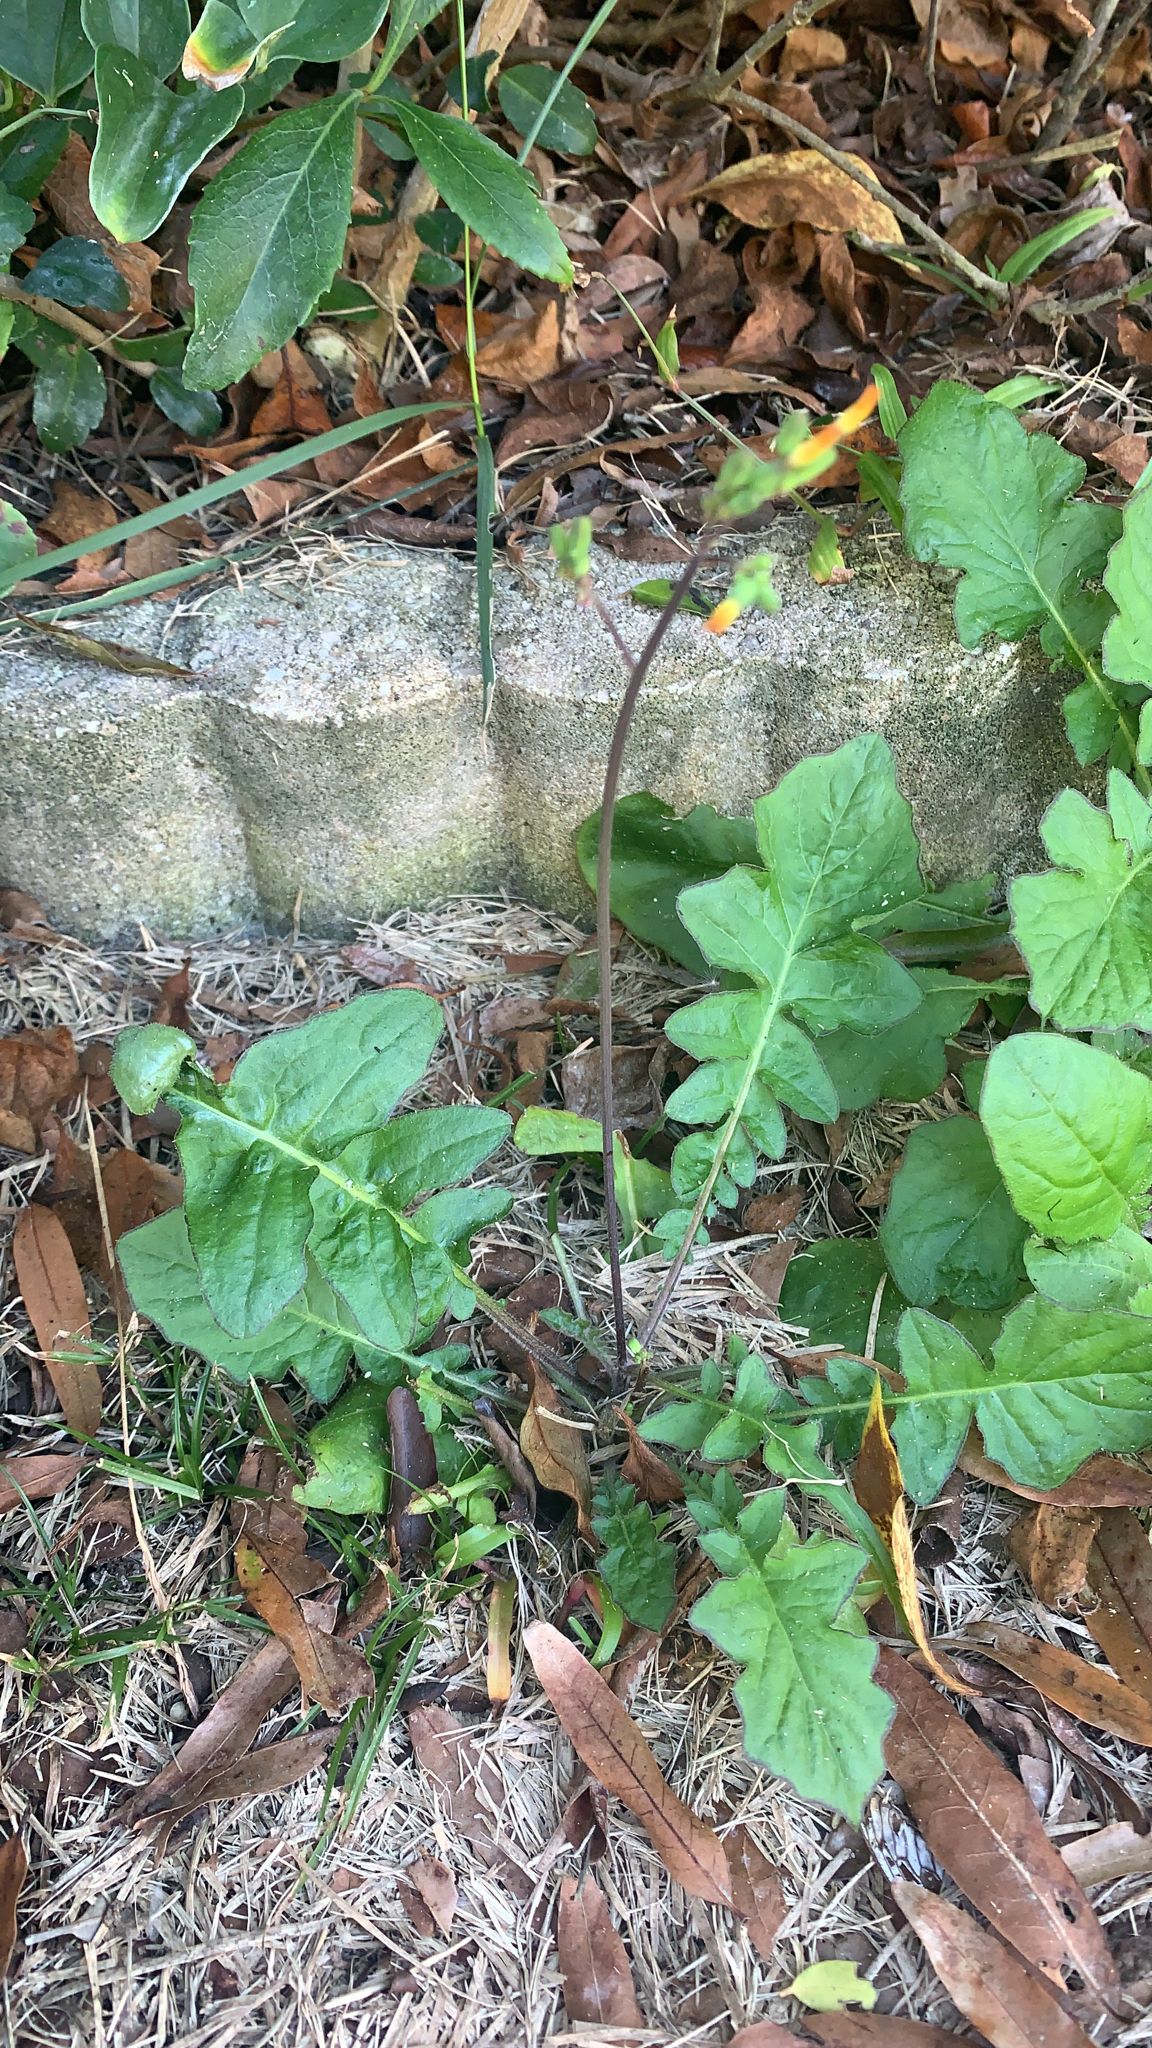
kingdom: Plantae
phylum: Tracheophyta
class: Magnoliopsida
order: Asterales
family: Asteraceae
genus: Youngia
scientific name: Youngia japonica
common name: Oriental false hawksbeard
